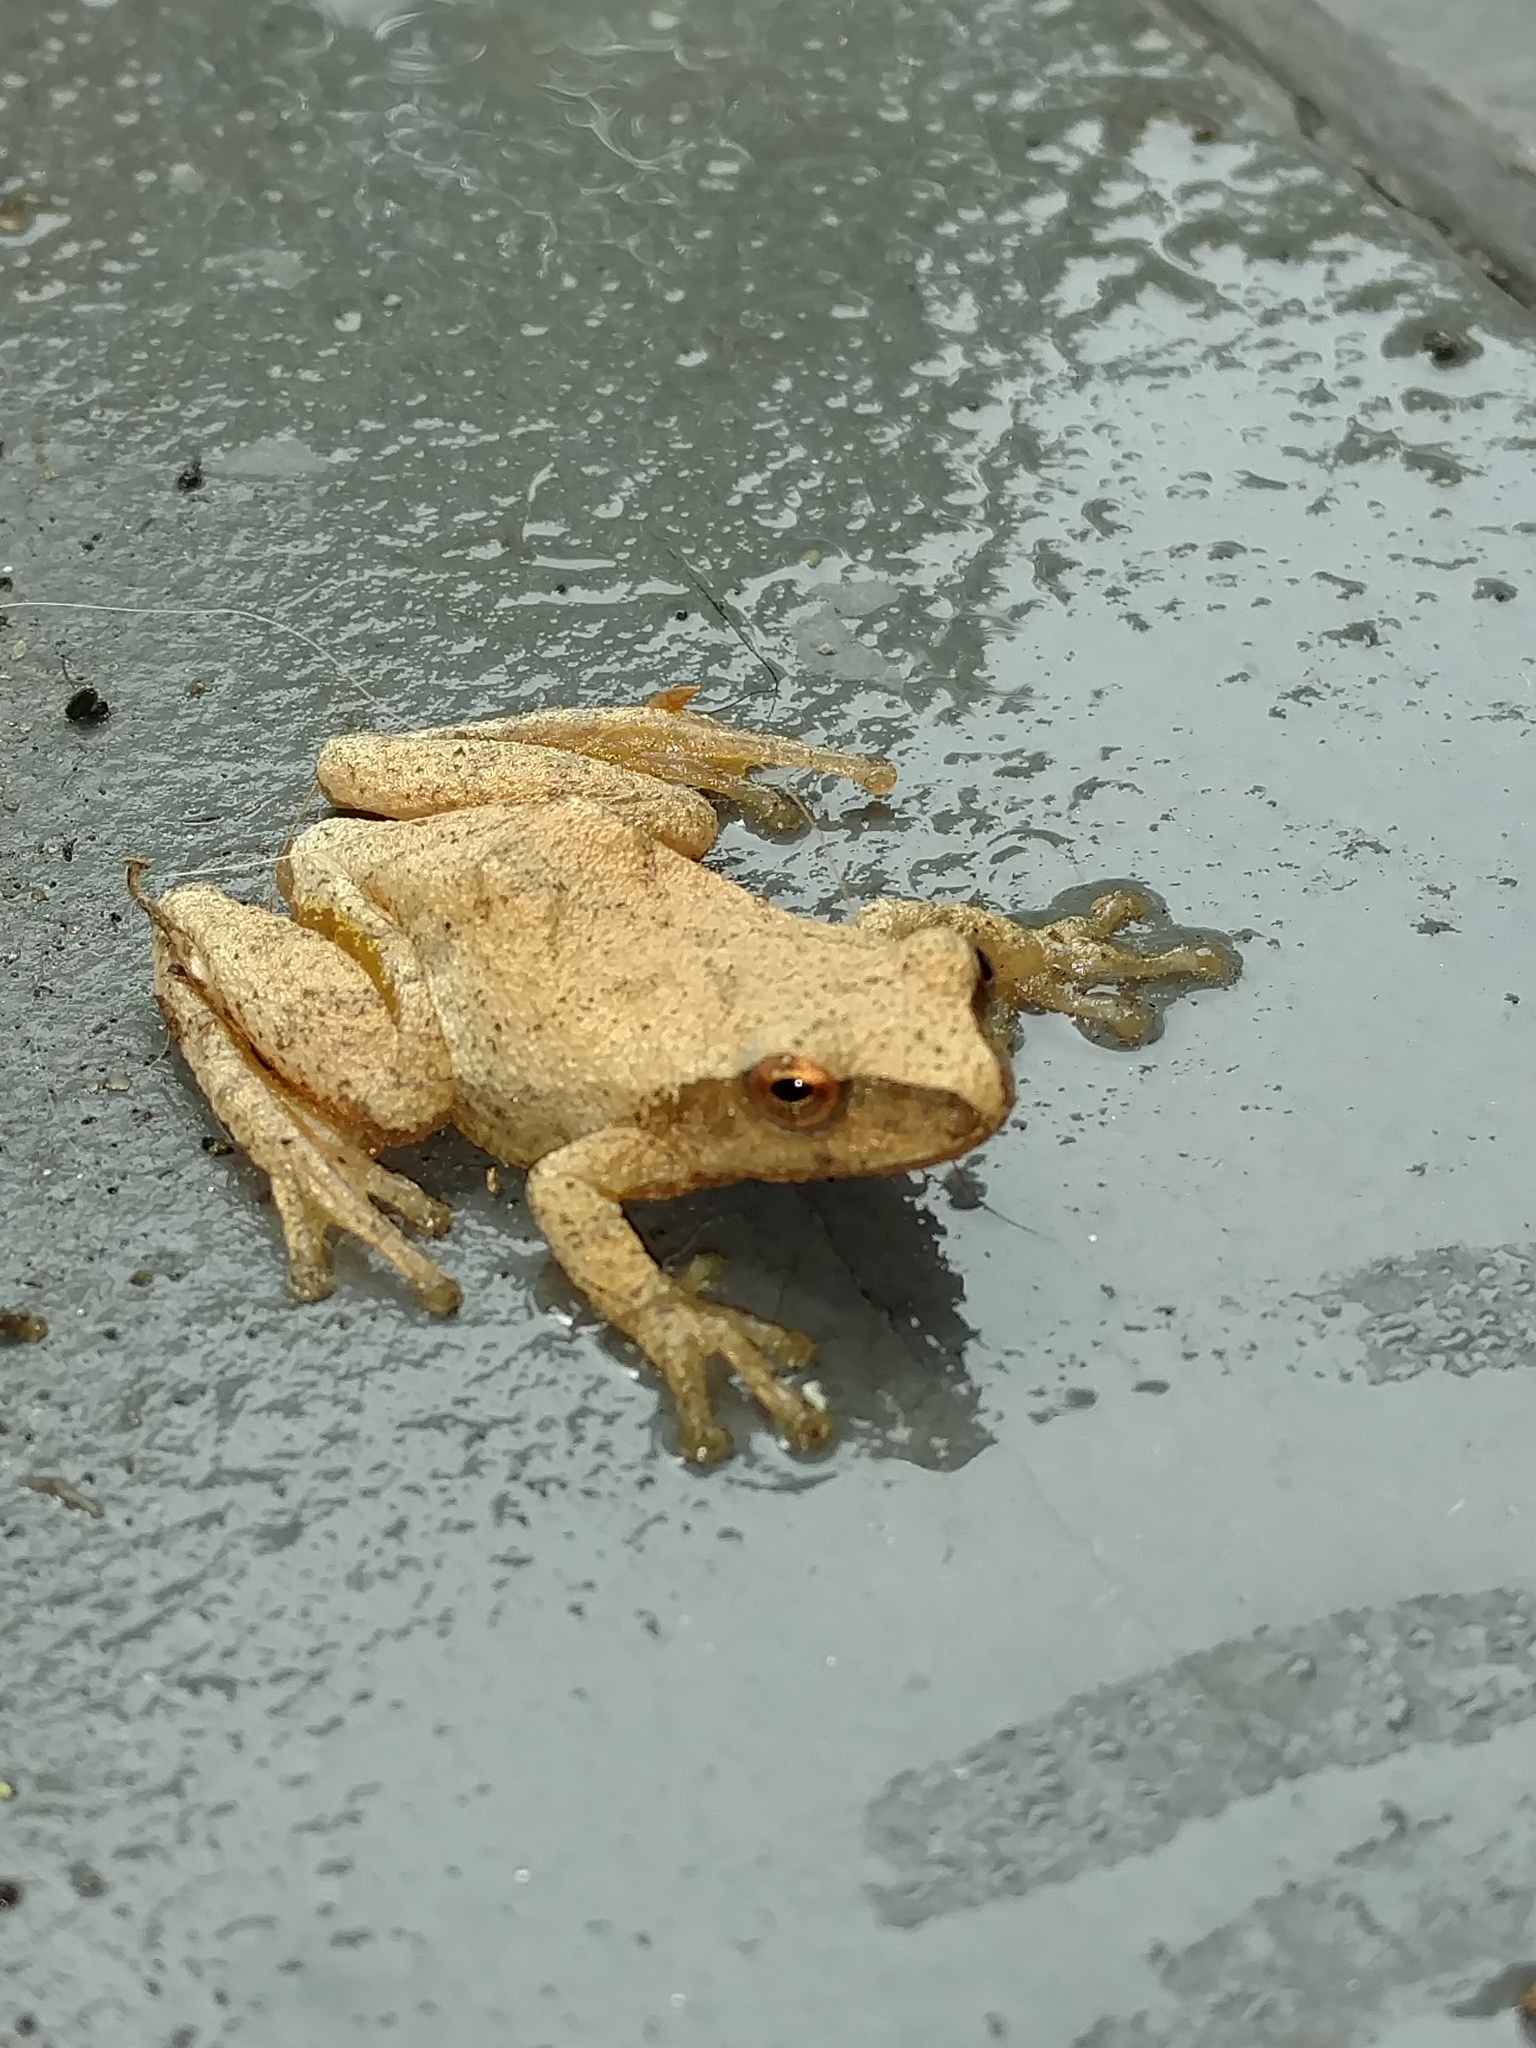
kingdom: Animalia
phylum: Chordata
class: Amphibia
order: Anura
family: Hylidae
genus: Pseudacris
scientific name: Pseudacris crucifer
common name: Spring peeper
